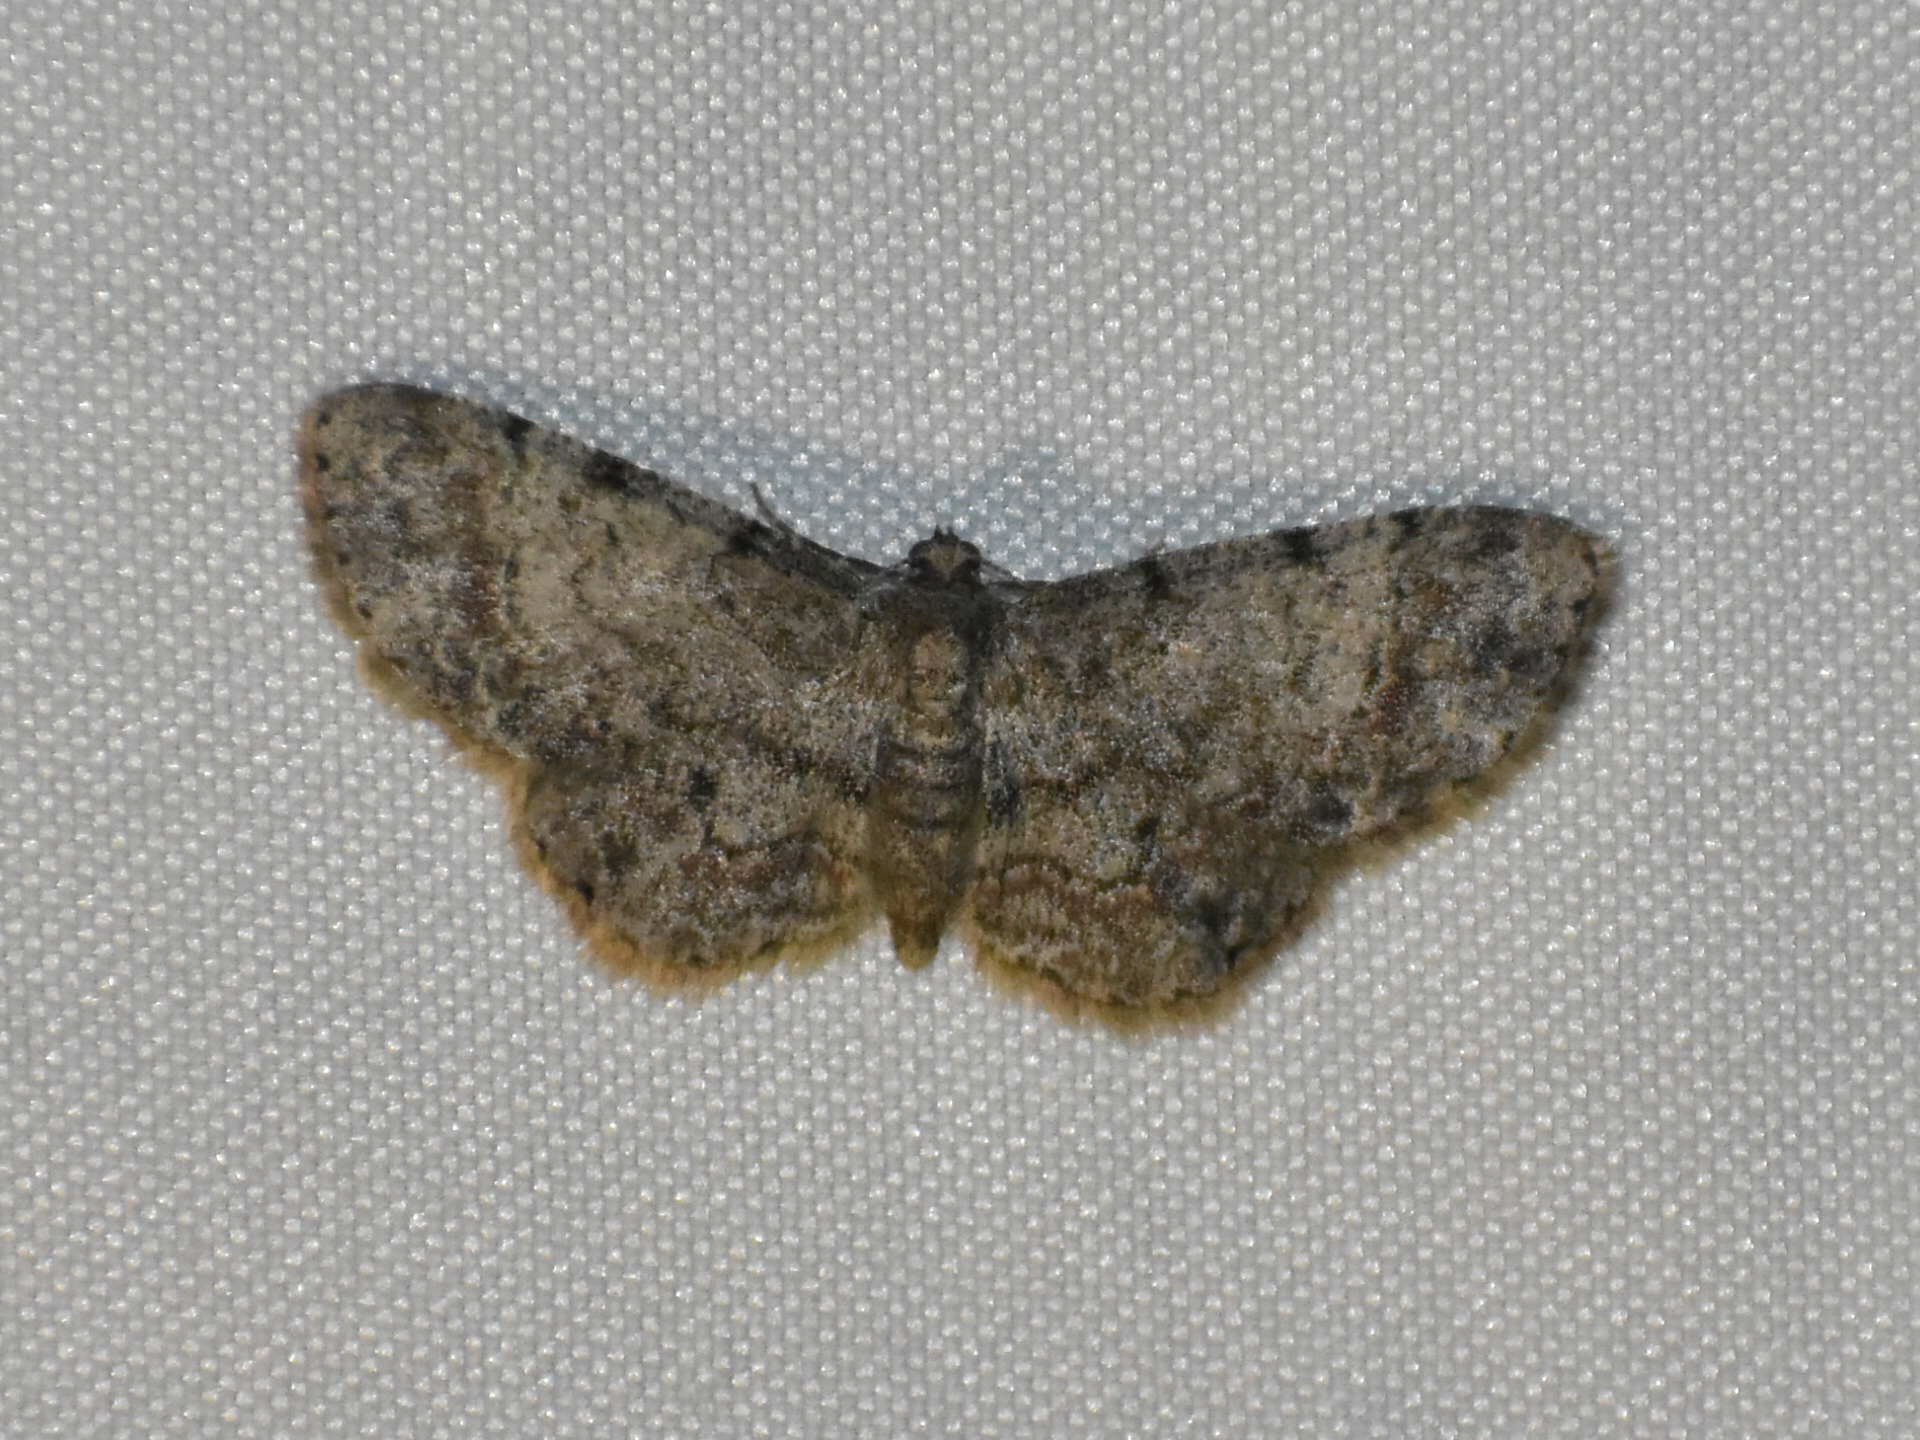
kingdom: Animalia
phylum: Arthropoda
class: Insecta
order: Lepidoptera
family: Geometridae
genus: Glenoides
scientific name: Glenoides texanaria
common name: Texas gray
